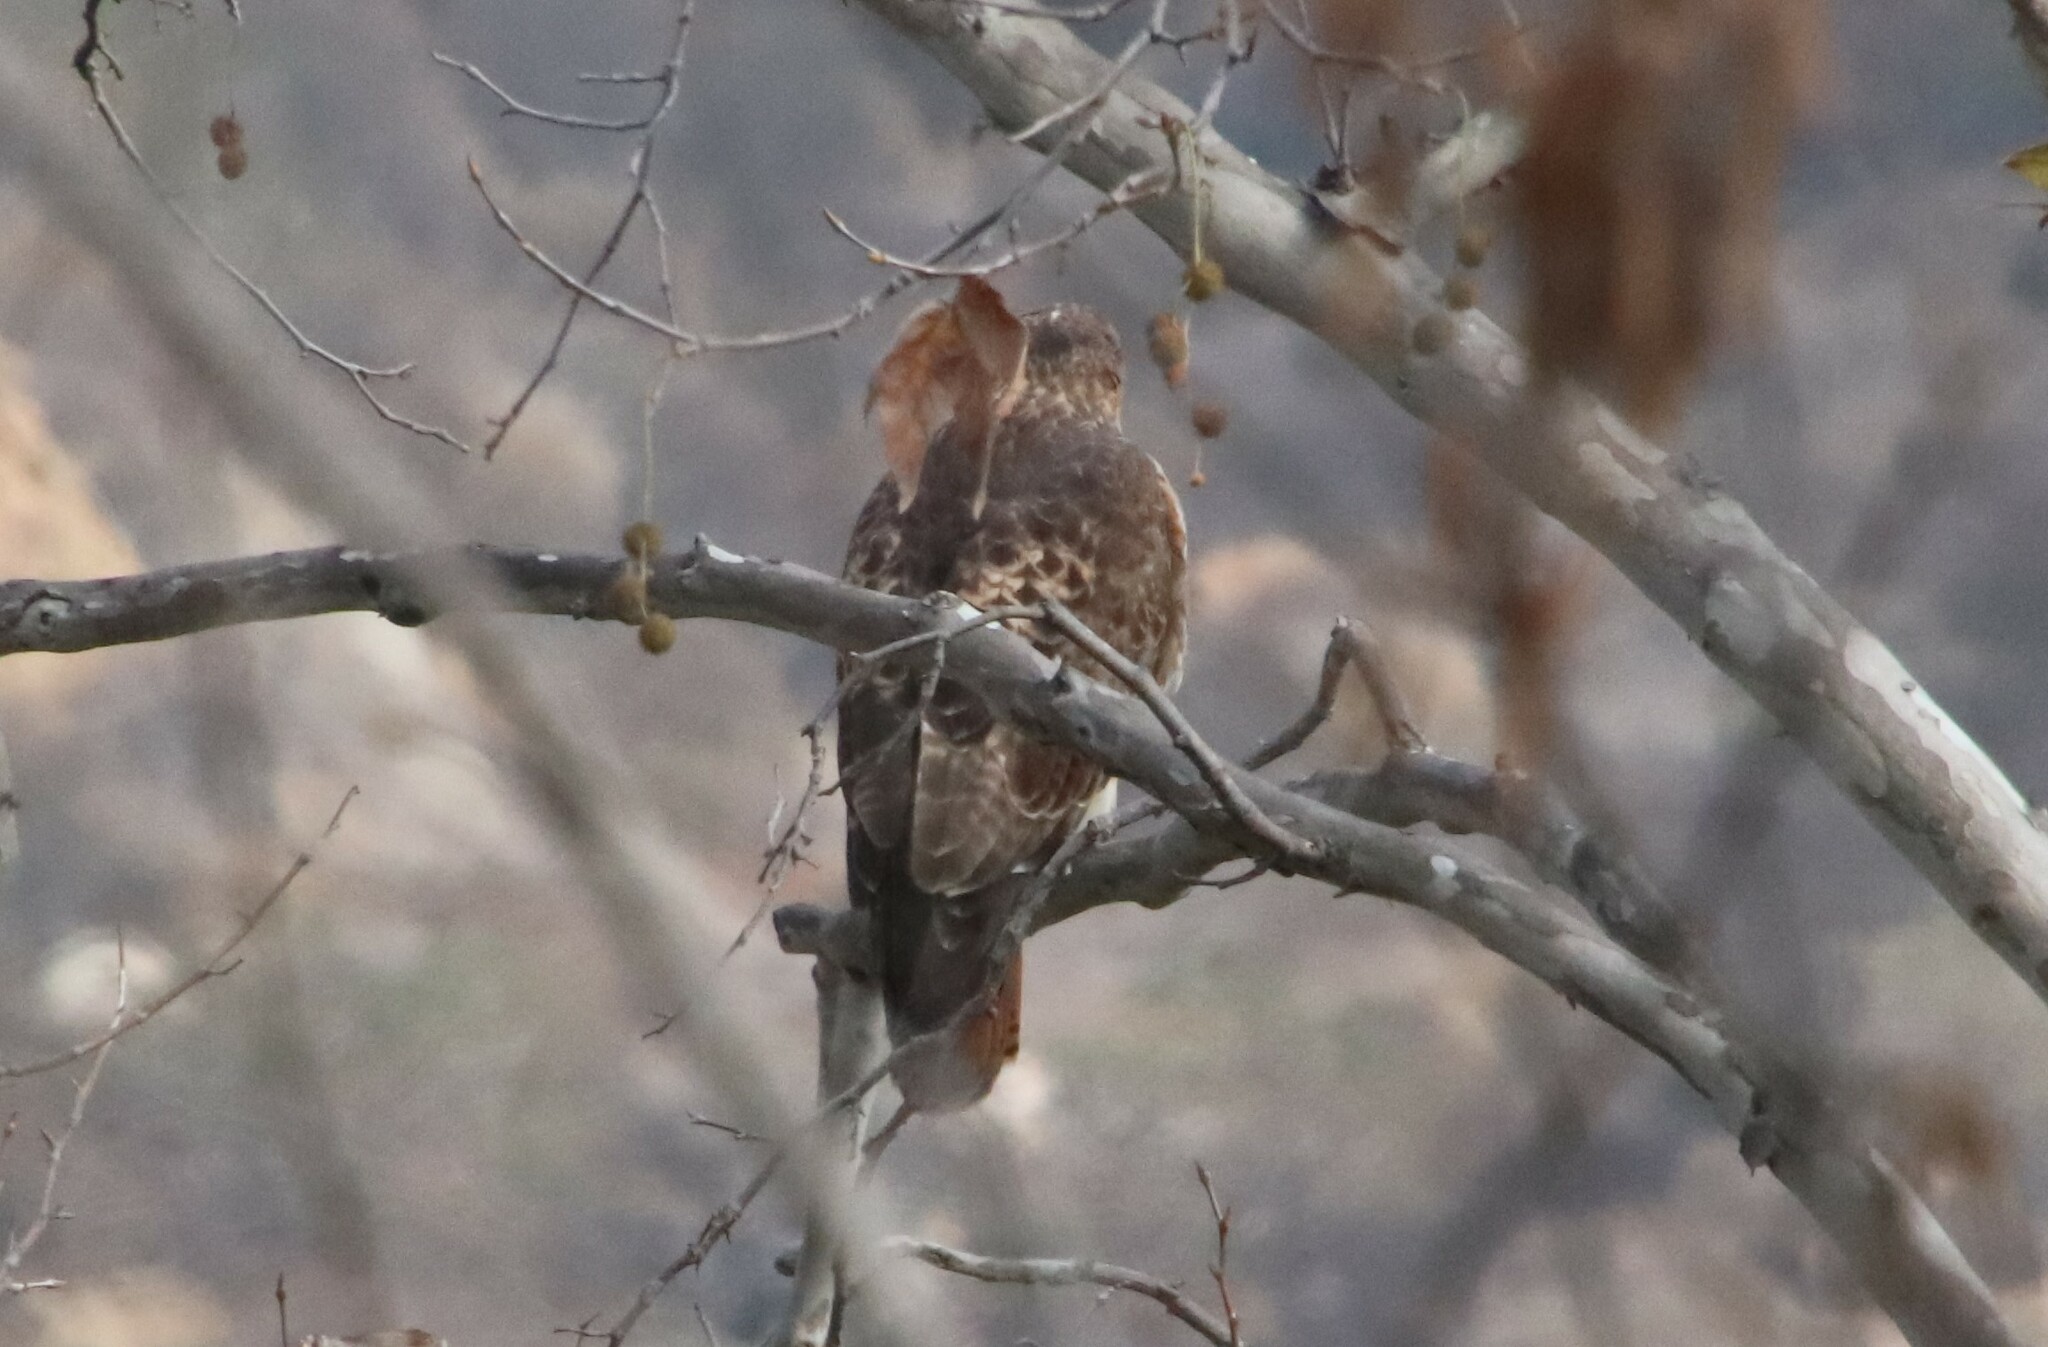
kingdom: Animalia
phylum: Chordata
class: Aves
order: Accipitriformes
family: Accipitridae
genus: Buteo
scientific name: Buteo jamaicensis
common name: Red-tailed hawk
